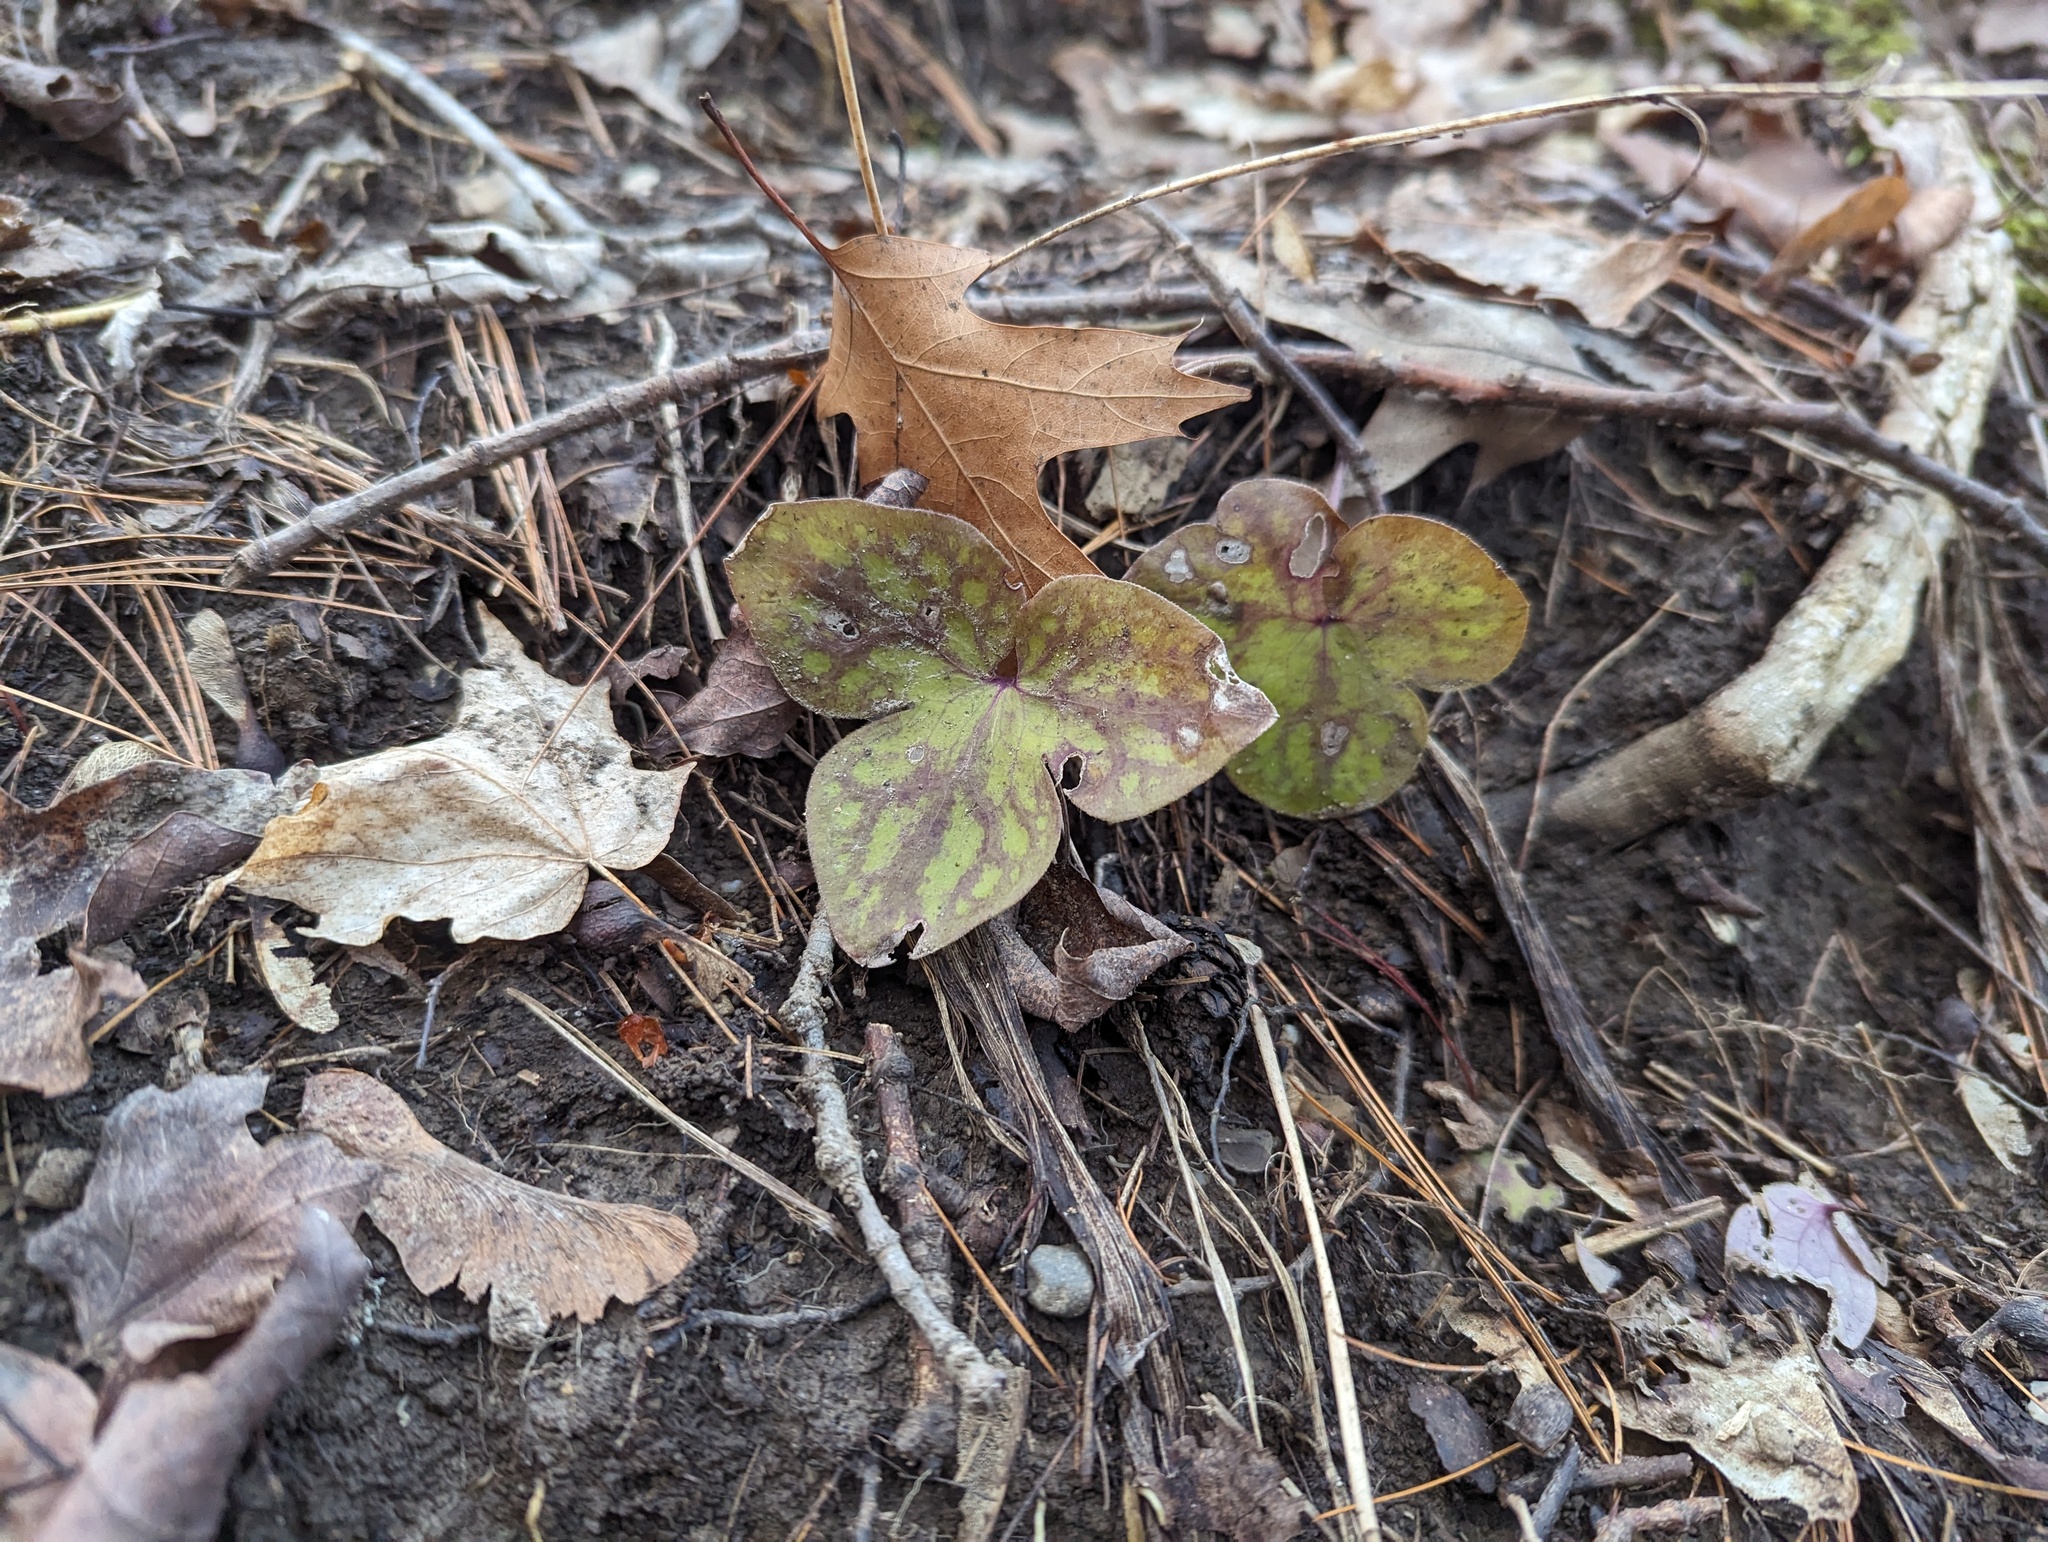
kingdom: Plantae
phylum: Tracheophyta
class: Magnoliopsida
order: Ranunculales
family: Ranunculaceae
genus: Hepatica
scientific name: Hepatica acutiloba
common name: Sharp-lobed hepatica
